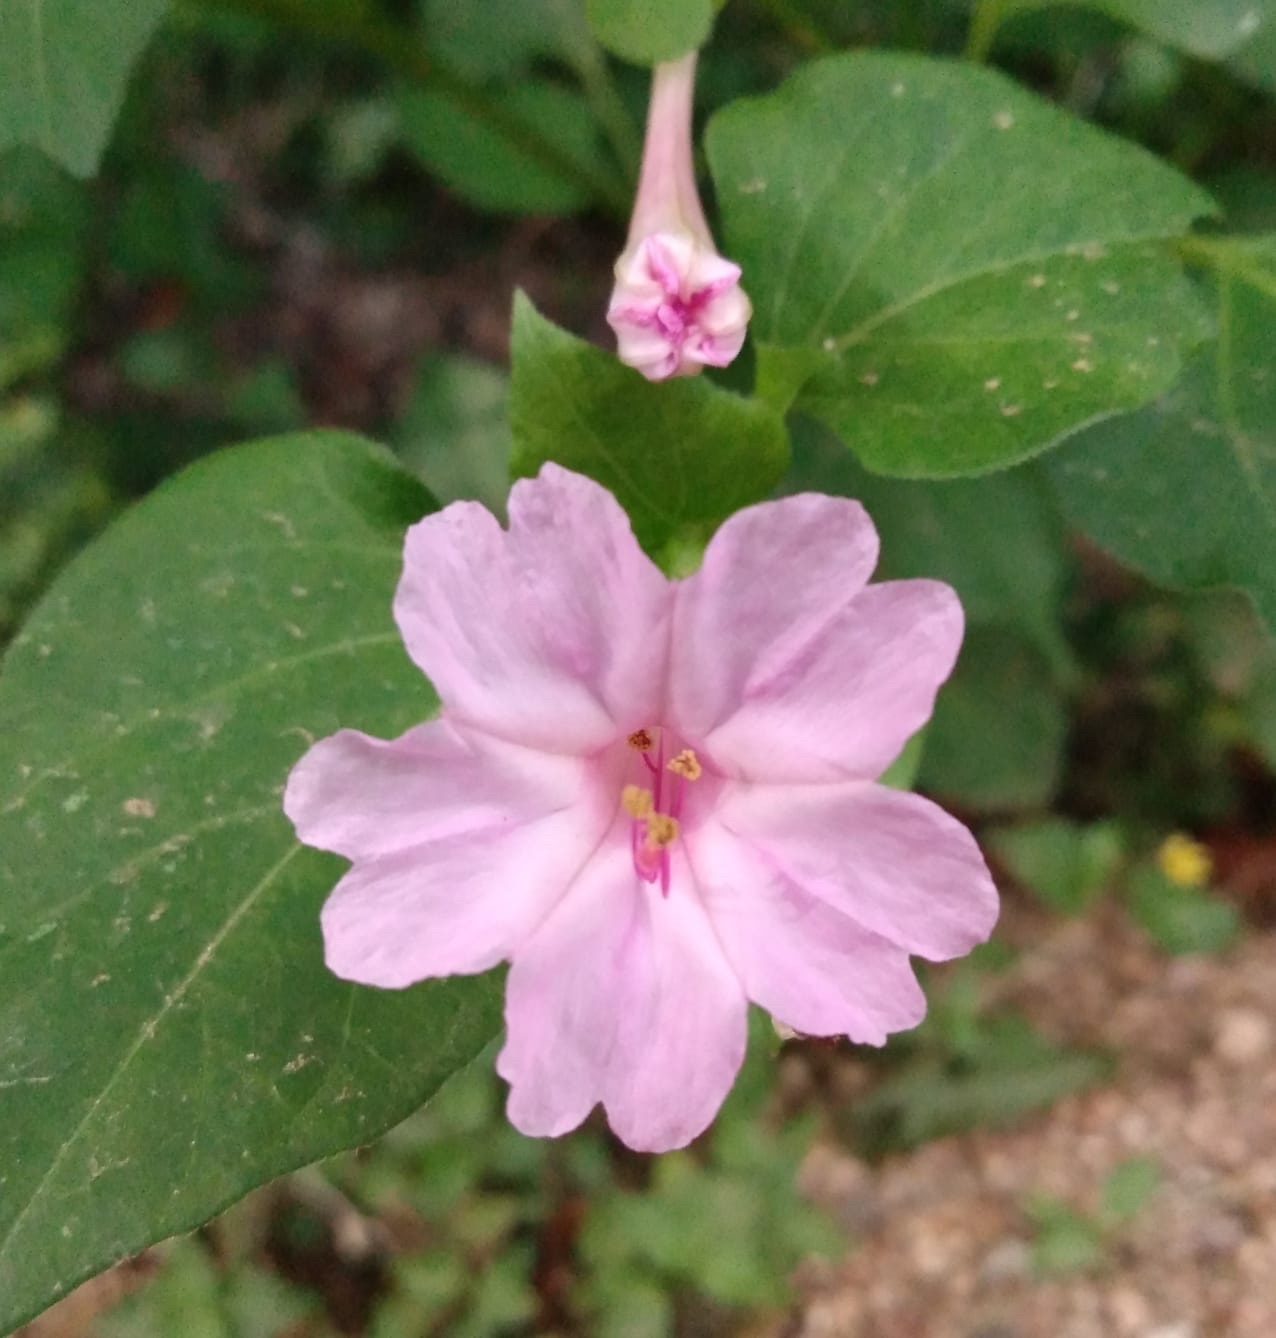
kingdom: Plantae
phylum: Tracheophyta
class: Magnoliopsida
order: Caryophyllales
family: Nyctaginaceae
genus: Mirabilis
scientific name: Mirabilis jalapa
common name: Marvel-of-peru
